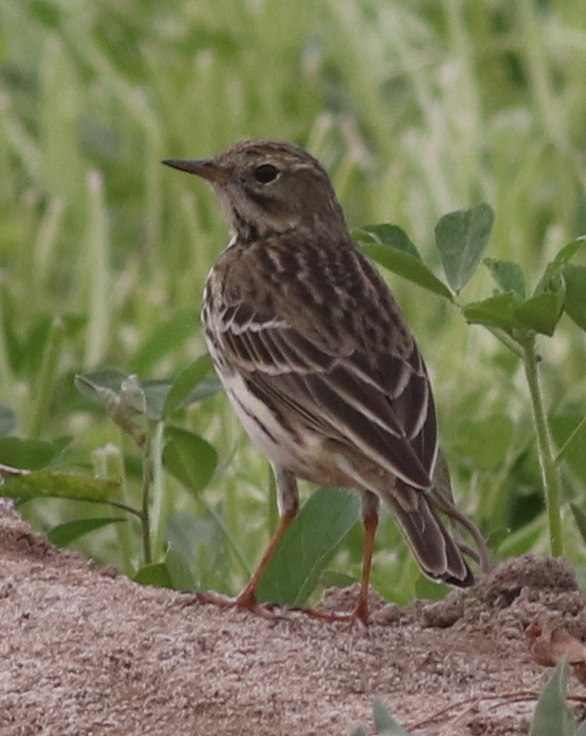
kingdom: Animalia
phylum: Chordata
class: Aves
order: Passeriformes
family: Motacillidae
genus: Anthus
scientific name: Anthus pratensis
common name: Meadow pipit
